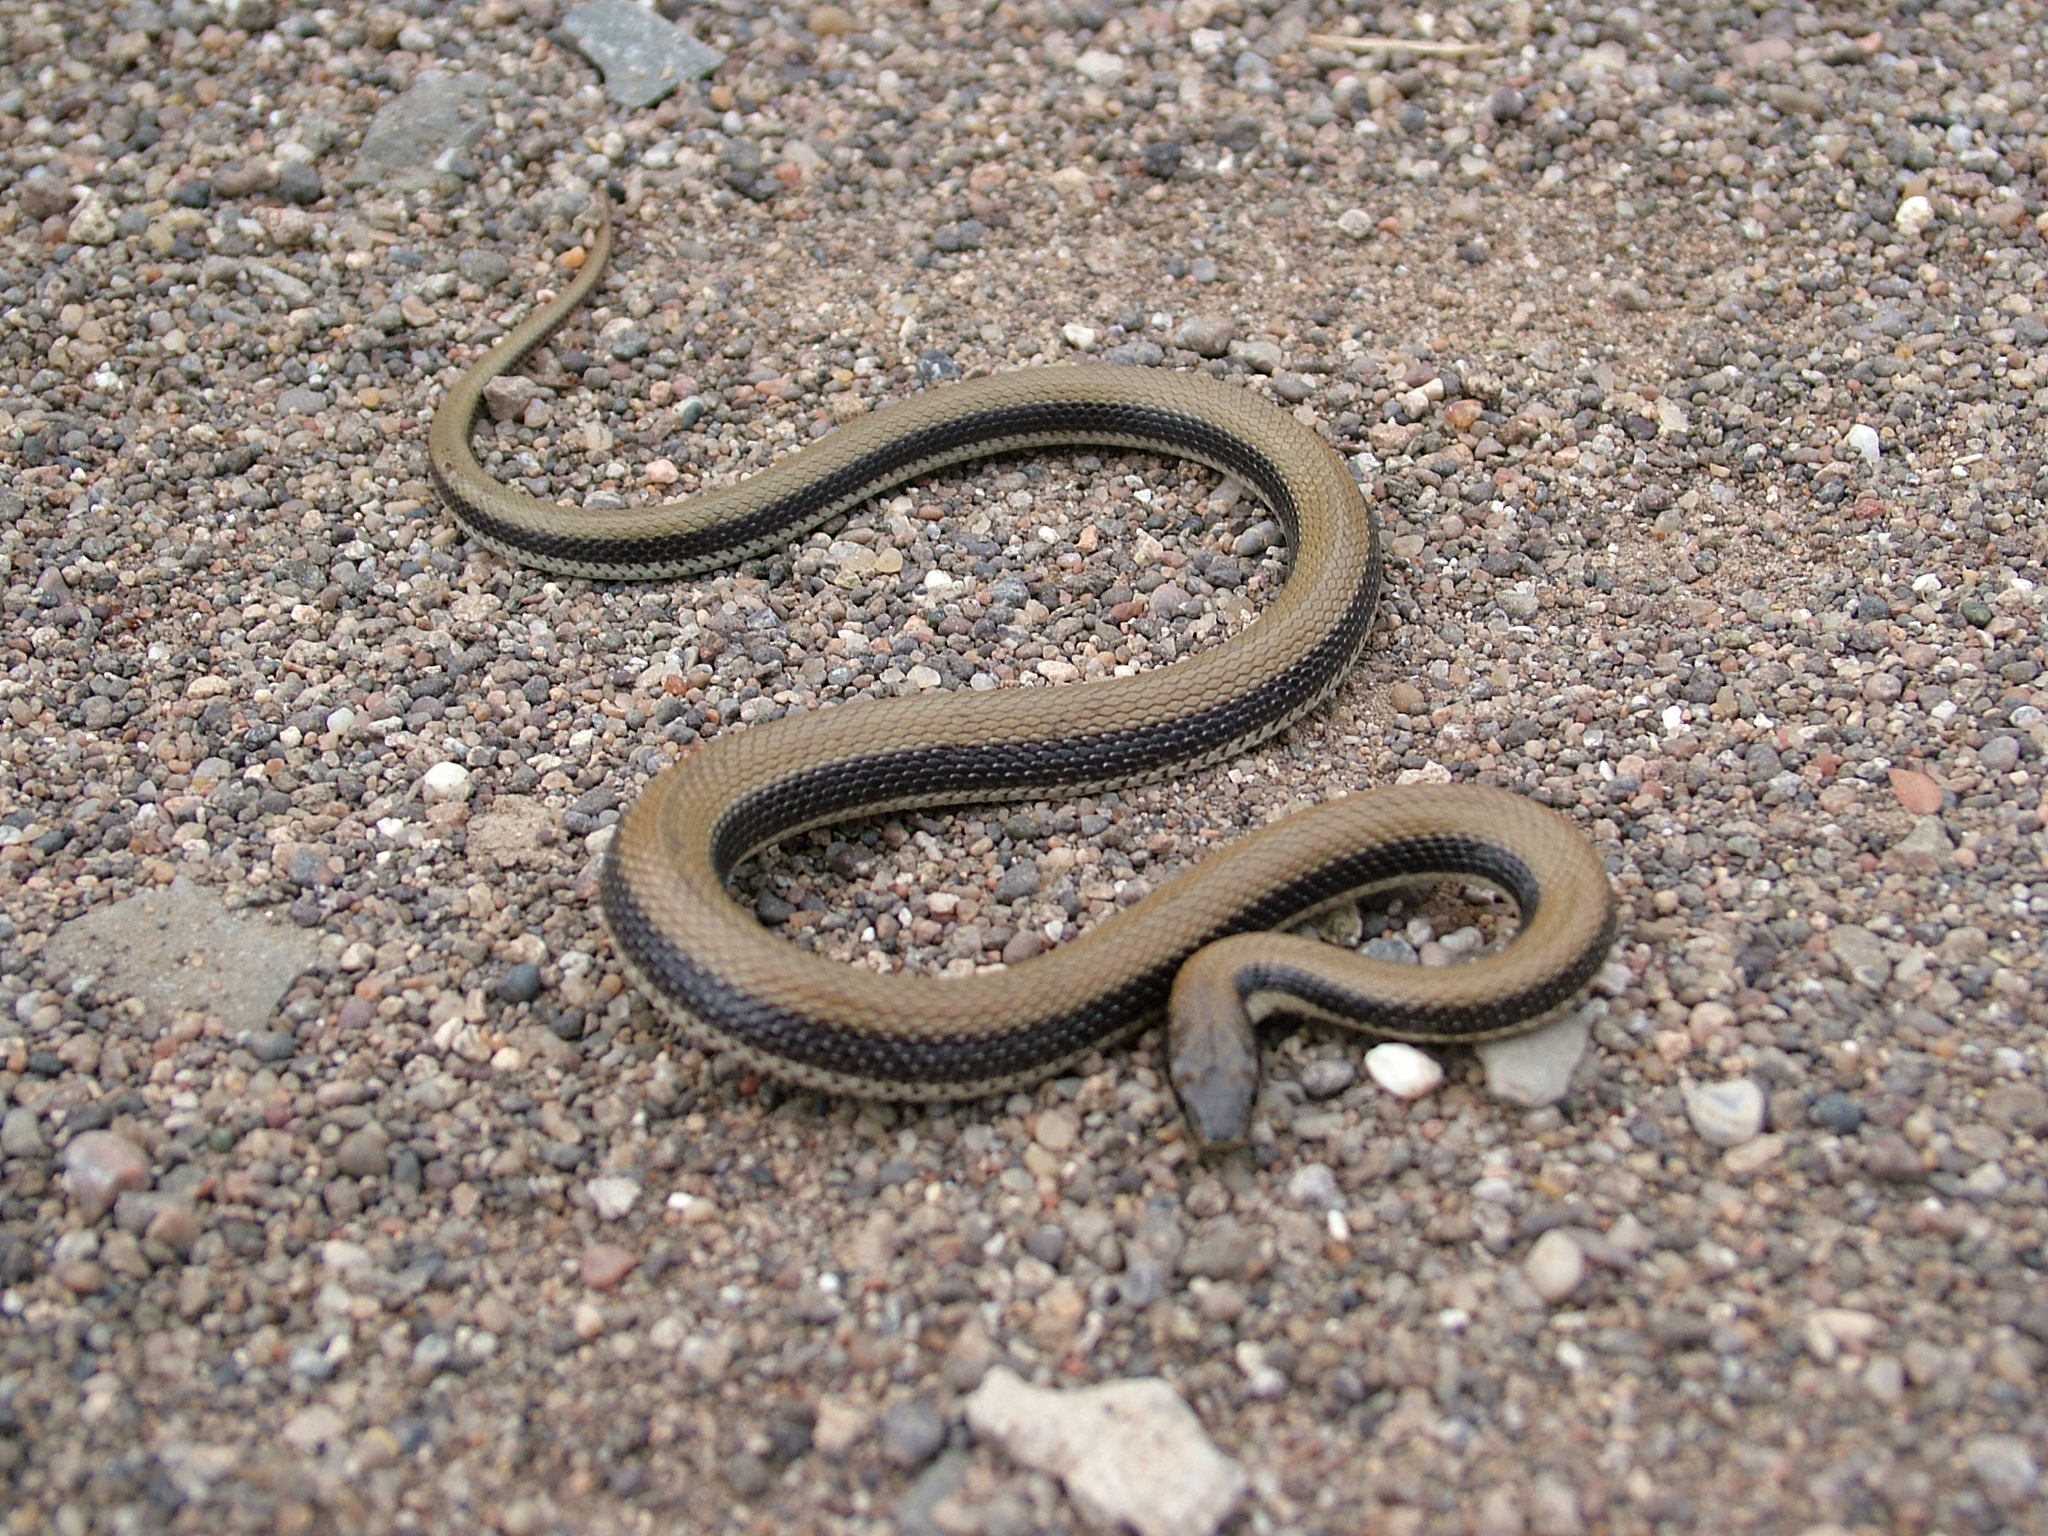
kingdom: Animalia
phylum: Chordata
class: Squamata
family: Colubridae
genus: Wallaceophis
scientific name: Wallaceophis gujaratensis
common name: Wallace’s racer
